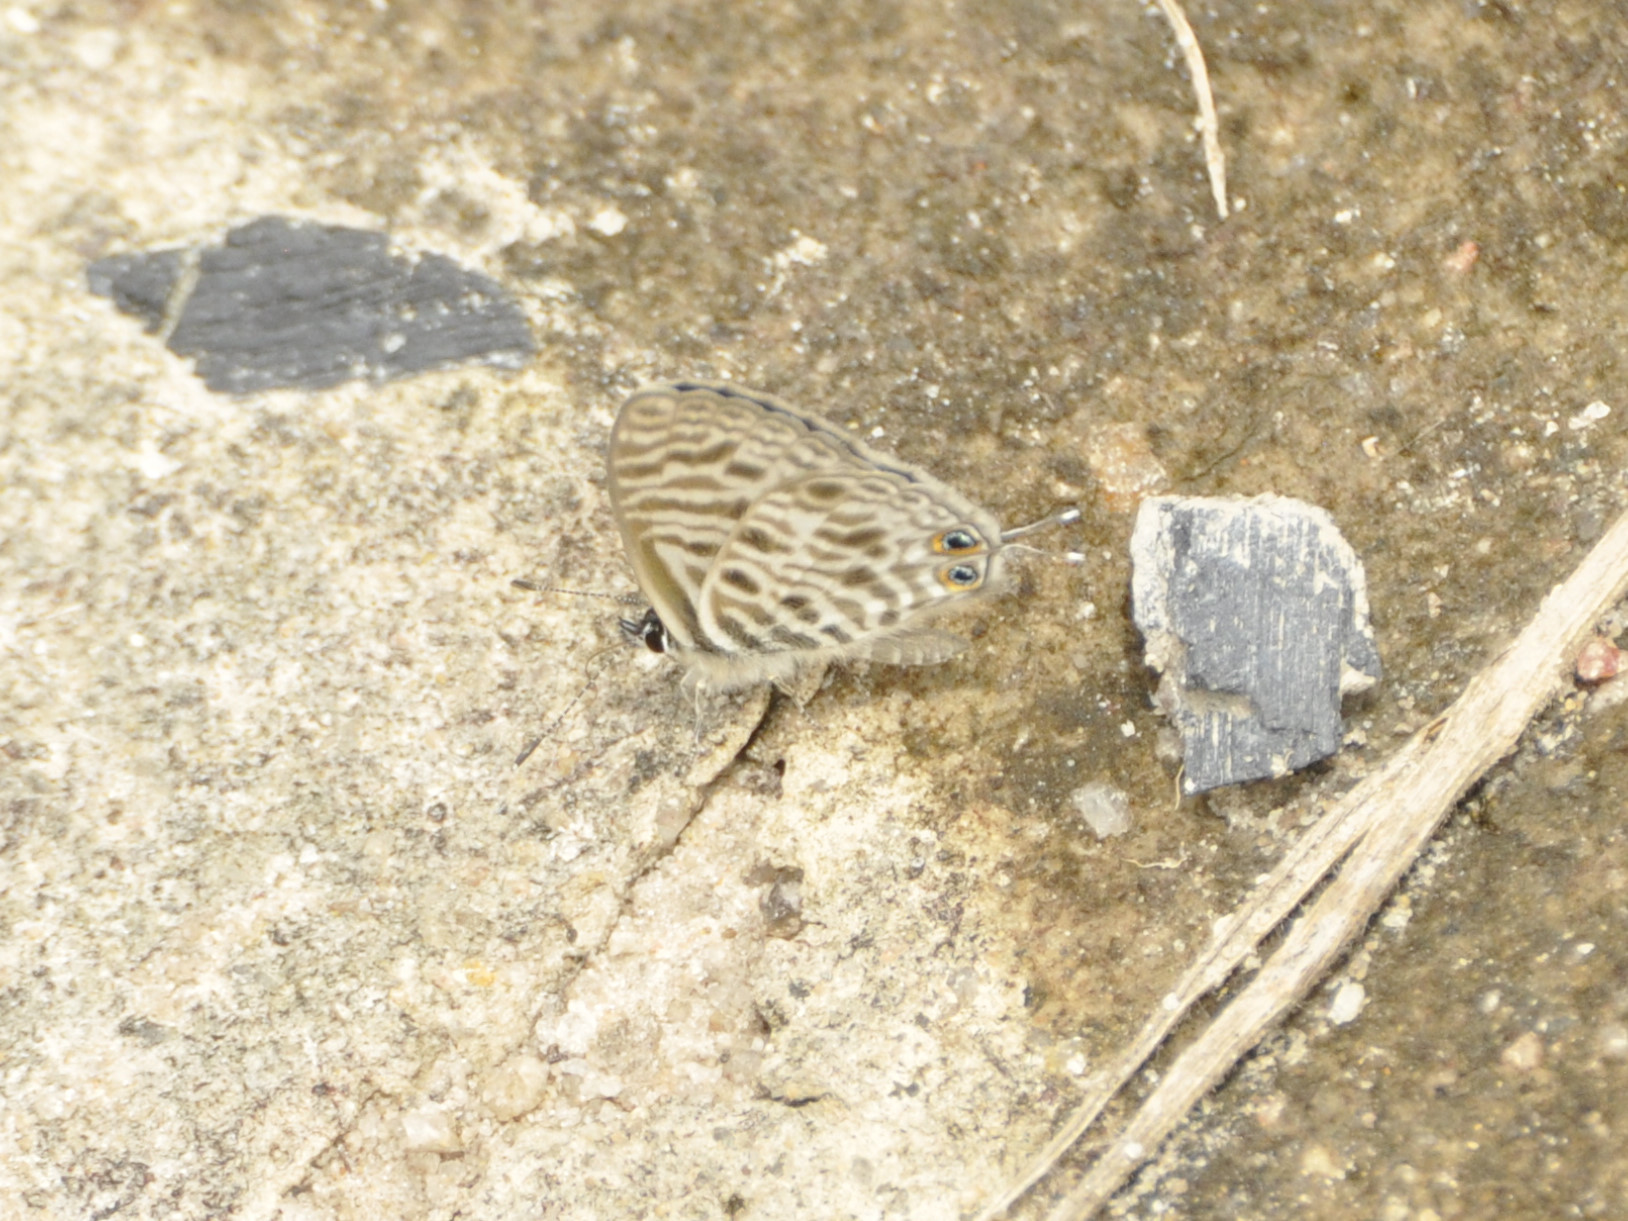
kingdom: Animalia
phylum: Arthropoda
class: Insecta
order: Lepidoptera
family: Lycaenidae
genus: Leptotes
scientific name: Leptotes
